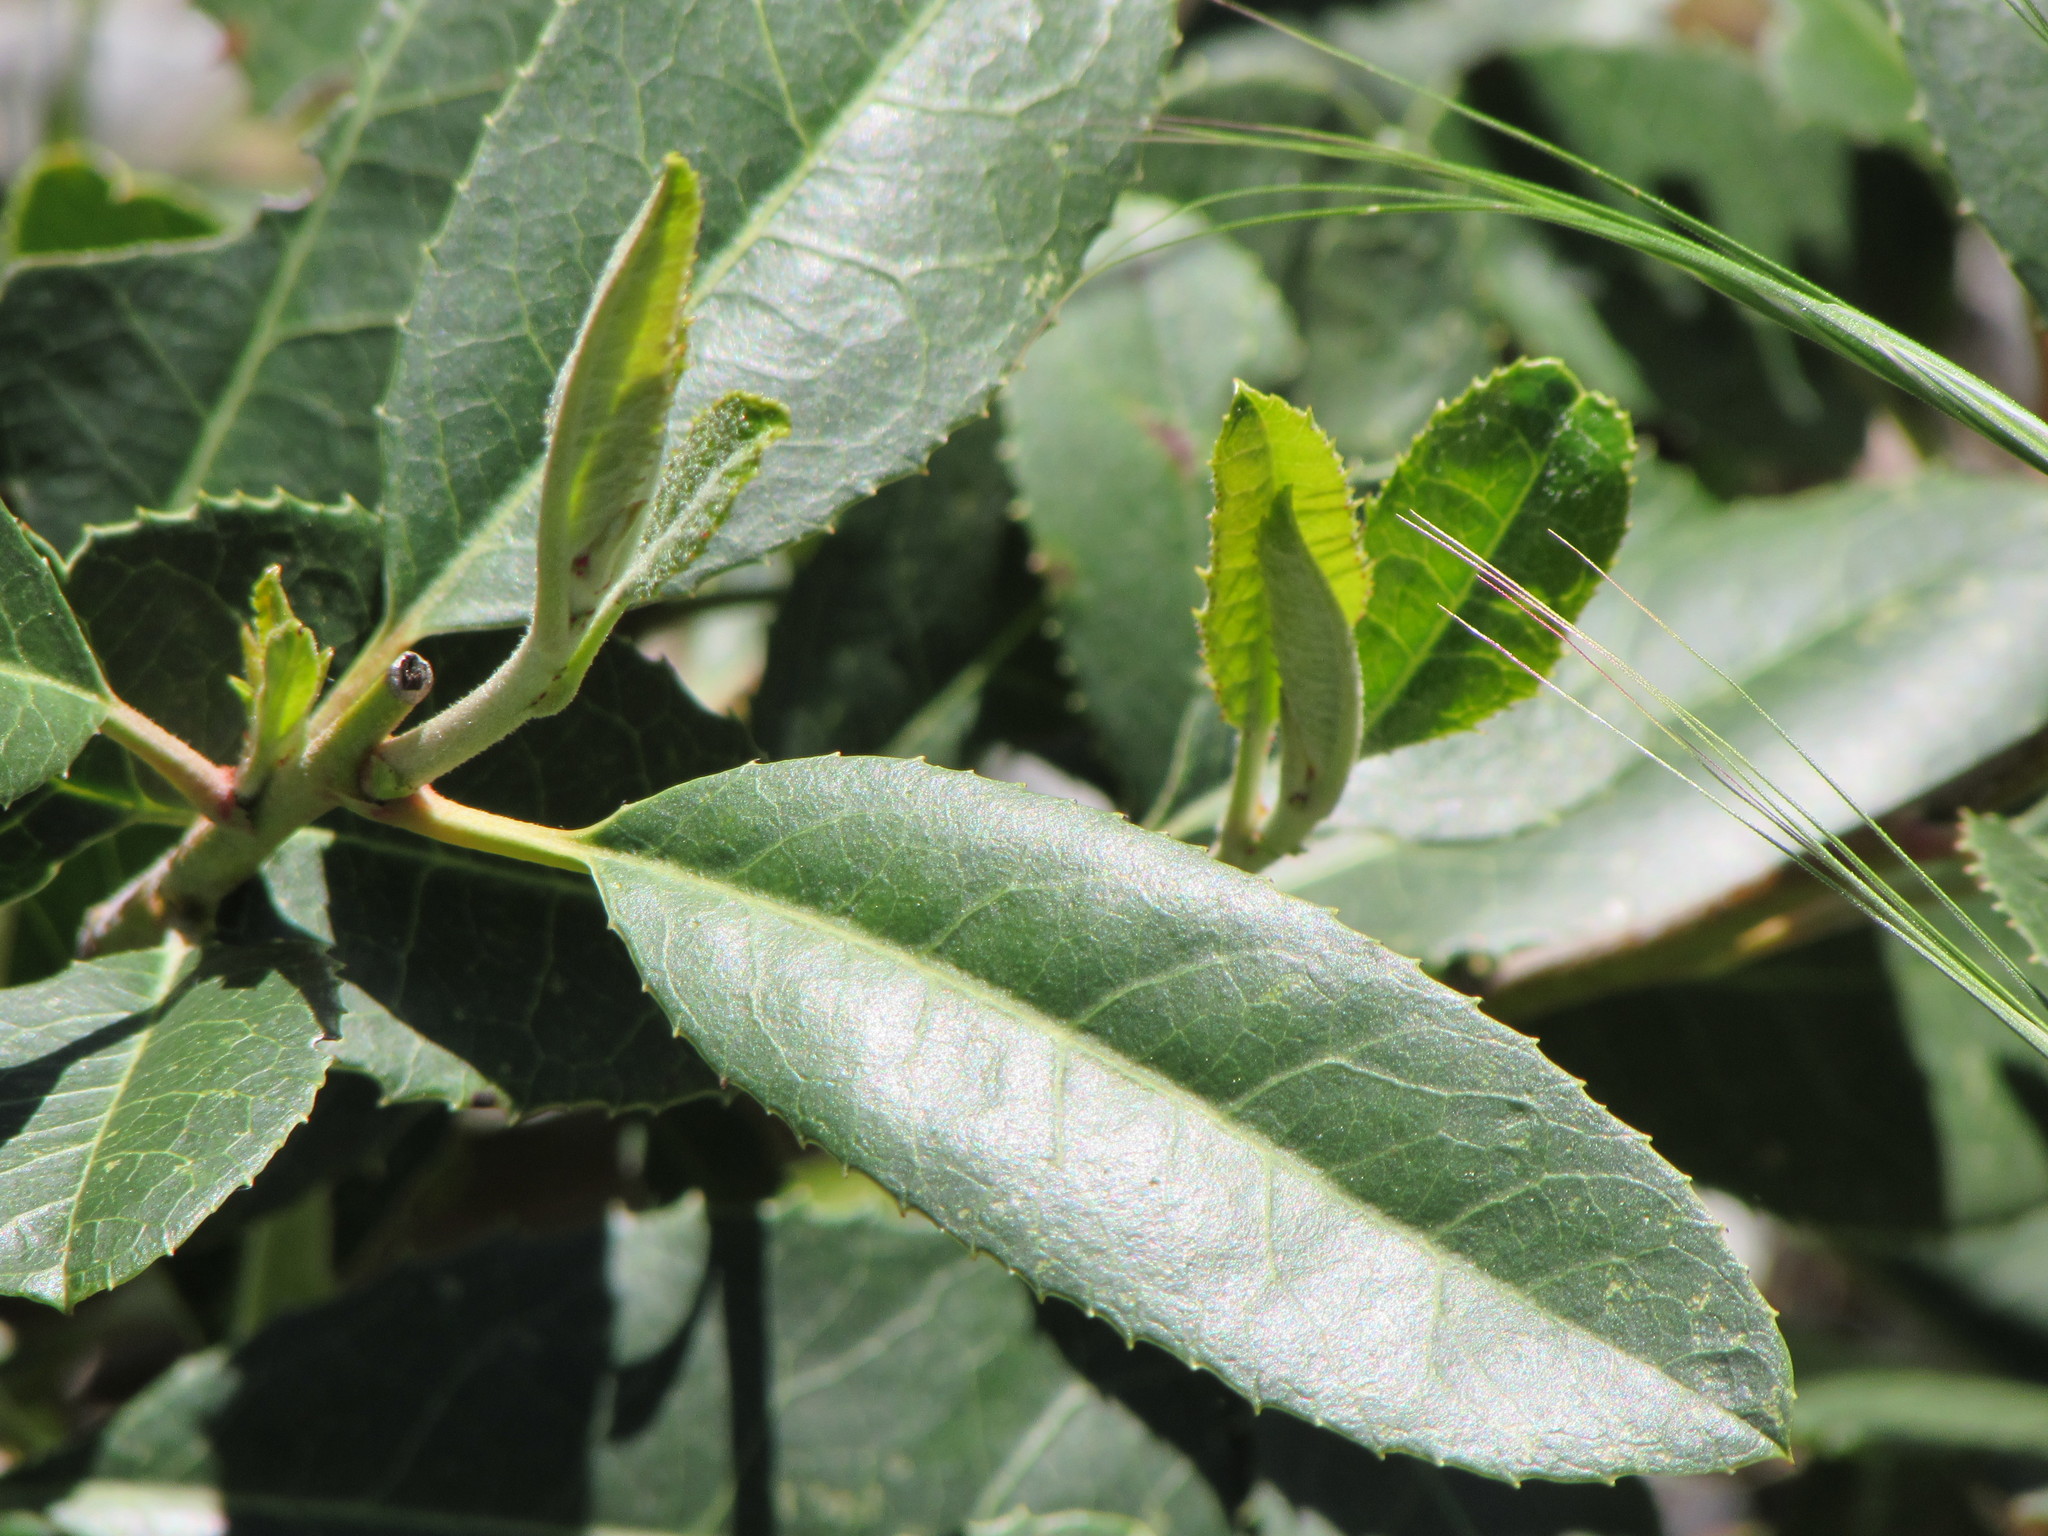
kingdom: Plantae
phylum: Tracheophyta
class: Magnoliopsida
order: Rosales
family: Rosaceae
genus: Heteromeles
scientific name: Heteromeles arbutifolia
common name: California-holly
